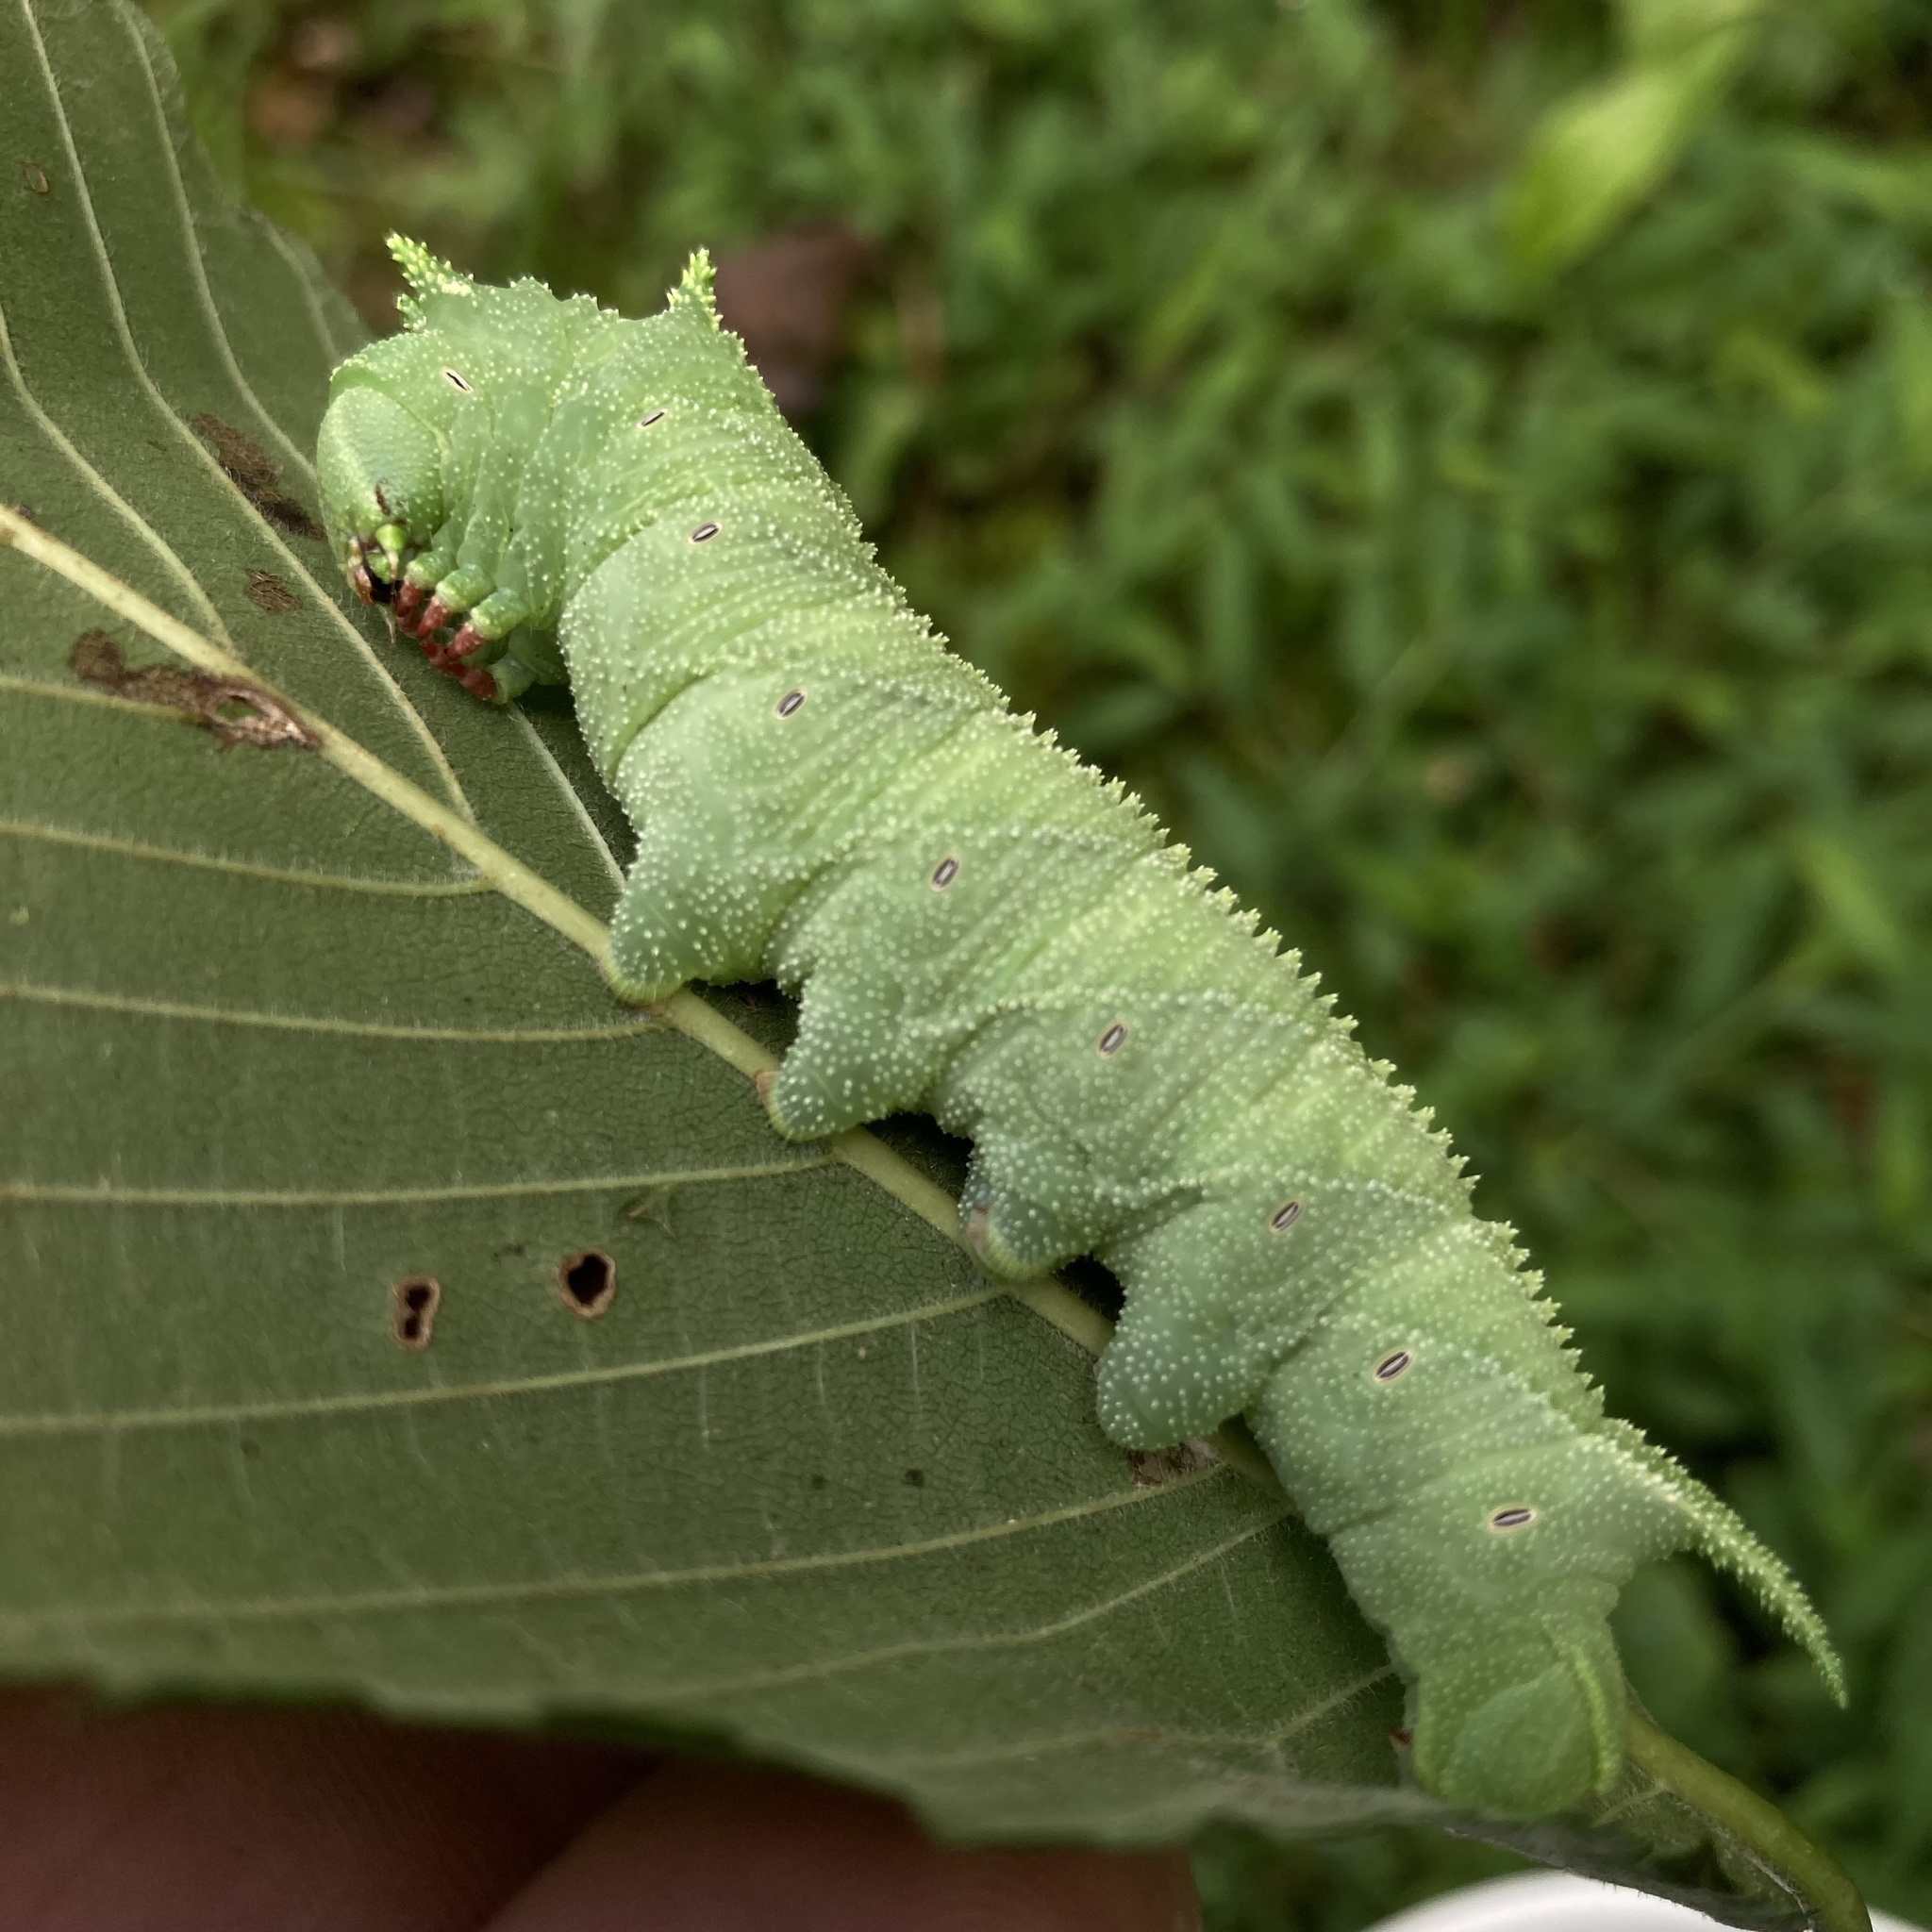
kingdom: Animalia
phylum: Arthropoda
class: Insecta
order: Lepidoptera
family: Sphingidae
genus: Ceratomia
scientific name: Ceratomia amyntor
